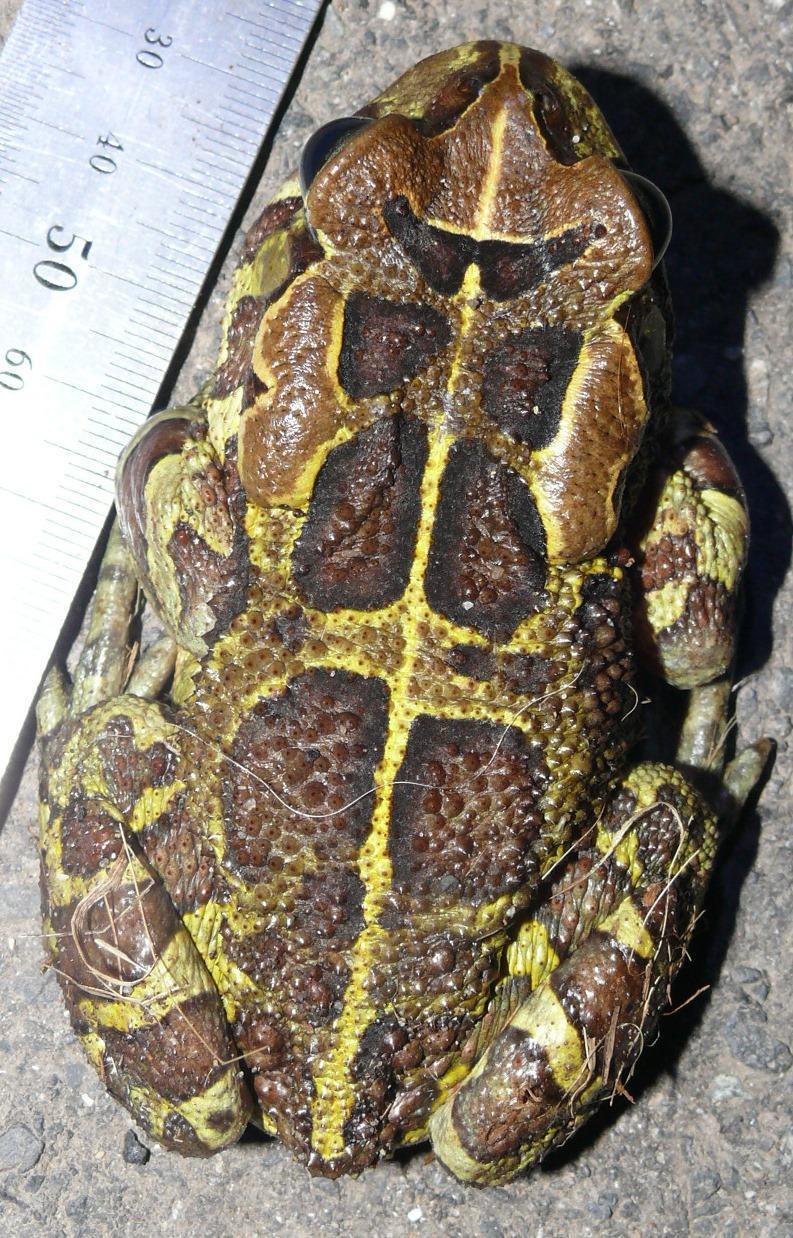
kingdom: Animalia
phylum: Chordata
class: Amphibia
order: Anura
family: Bufonidae
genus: Sclerophrys
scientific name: Sclerophrys pantherina
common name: Panther toad
